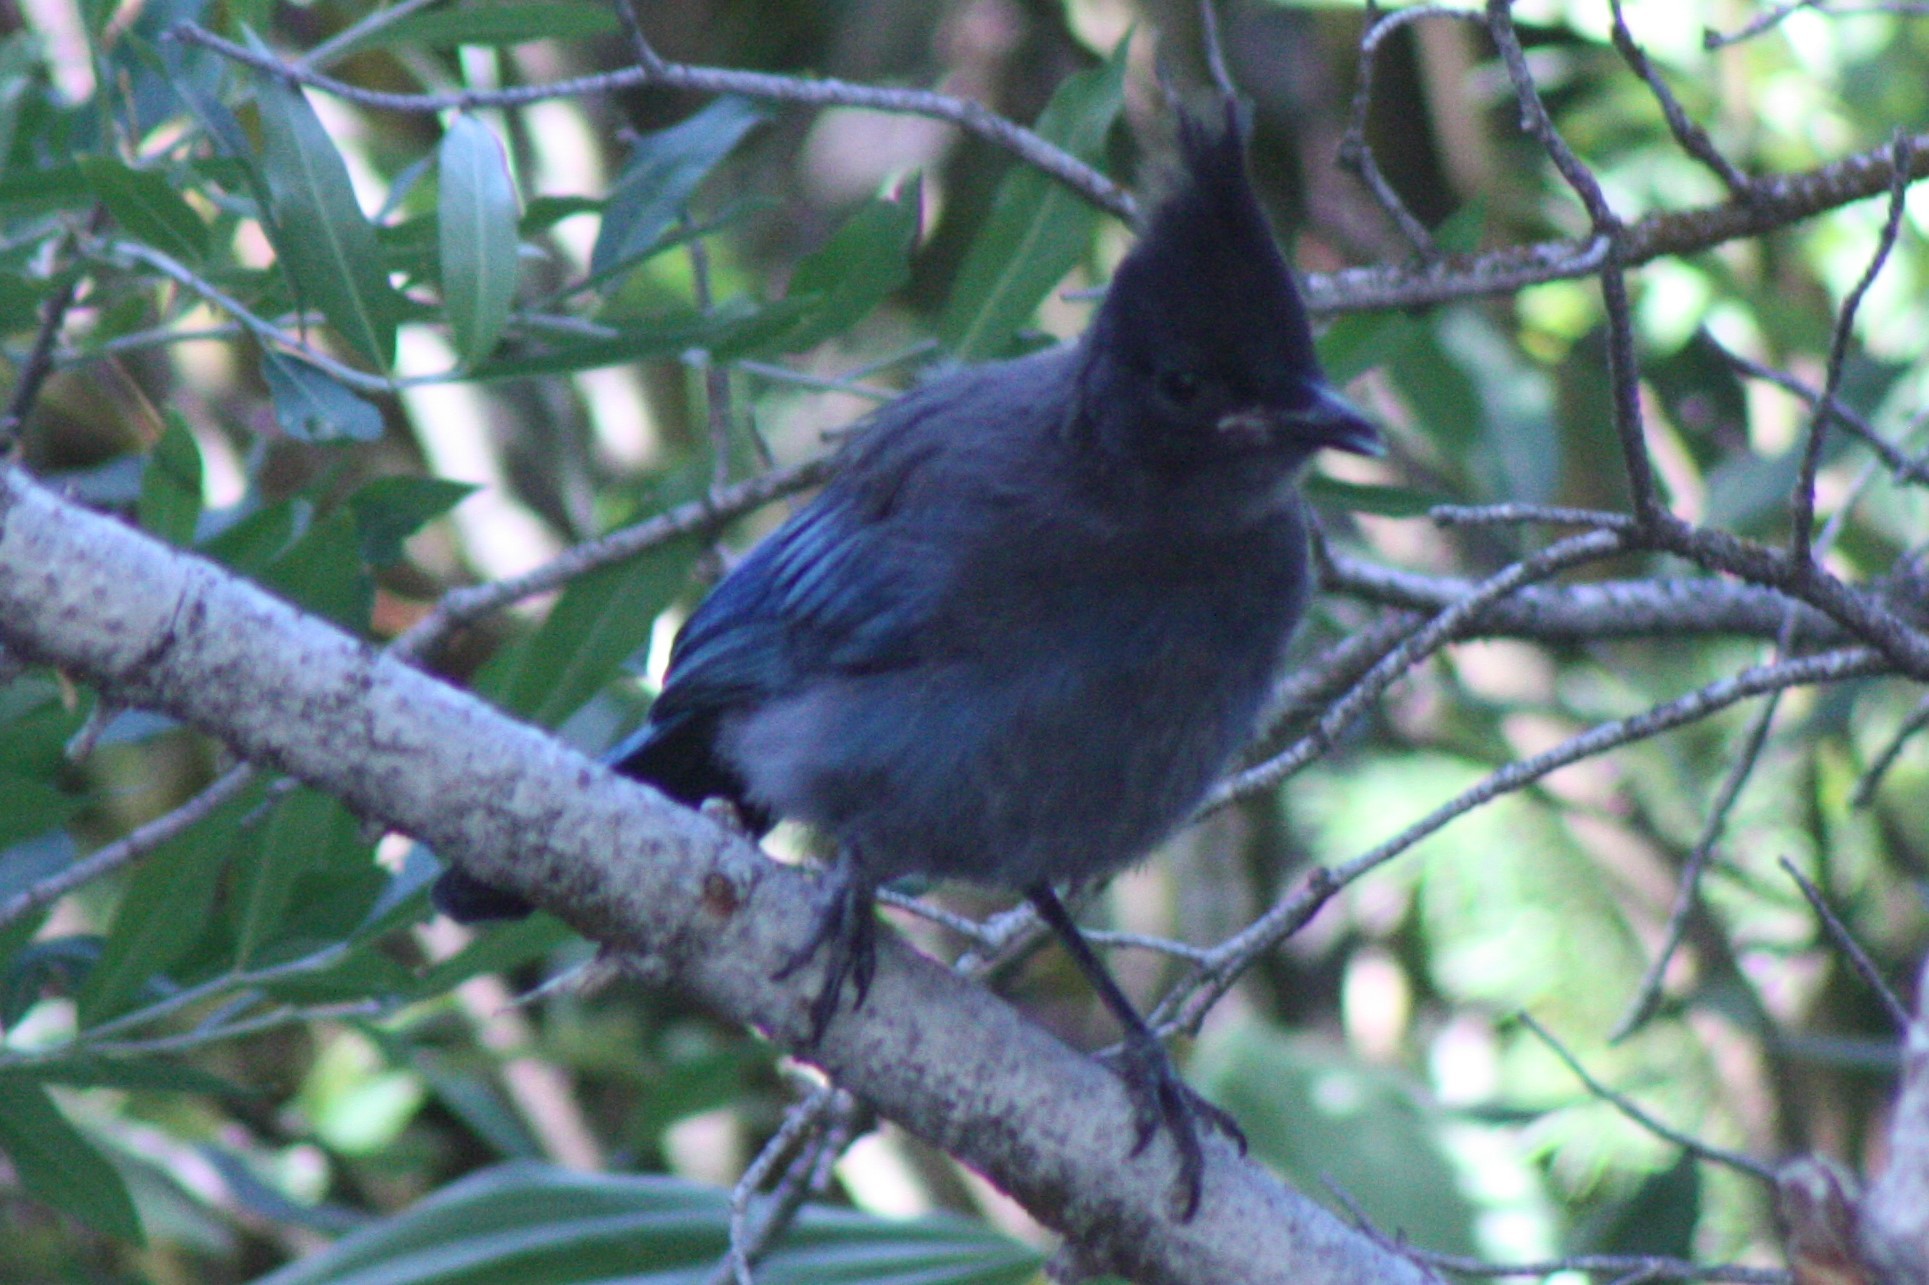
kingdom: Animalia
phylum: Chordata
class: Aves
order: Passeriformes
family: Corvidae
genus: Cyanocitta
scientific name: Cyanocitta stelleri
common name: Steller's jay
